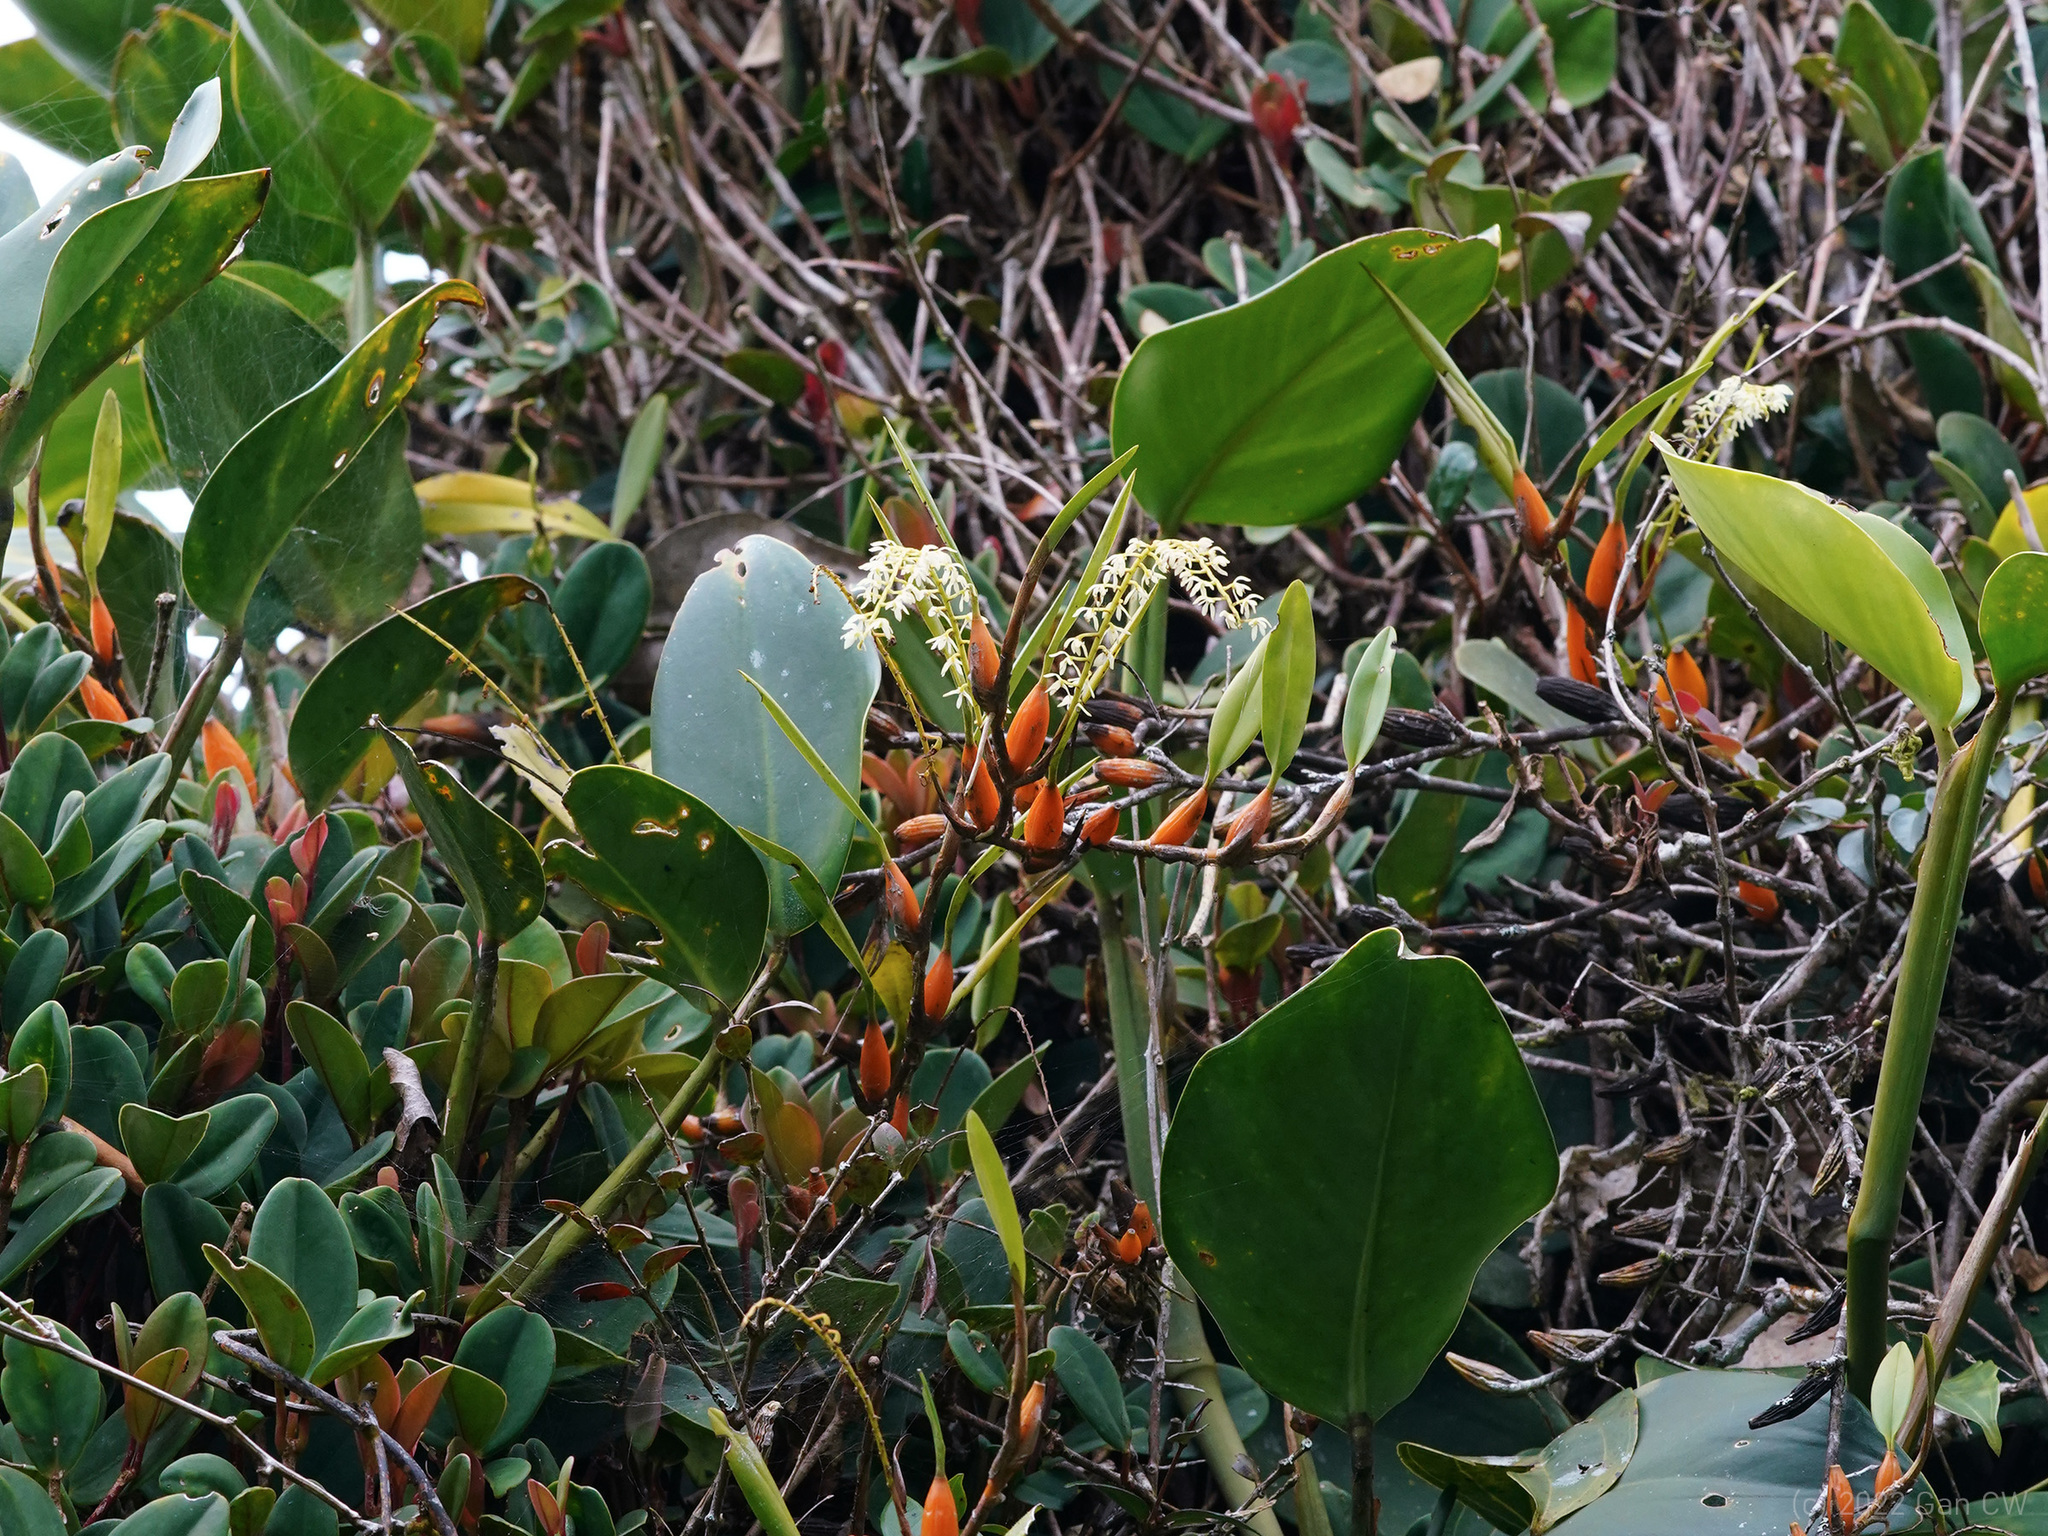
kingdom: Plantae
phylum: Tracheophyta
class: Liliopsida
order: Asparagales
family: Orchidaceae
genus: Coelogyne
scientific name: Coelogyne pallidiflavens
